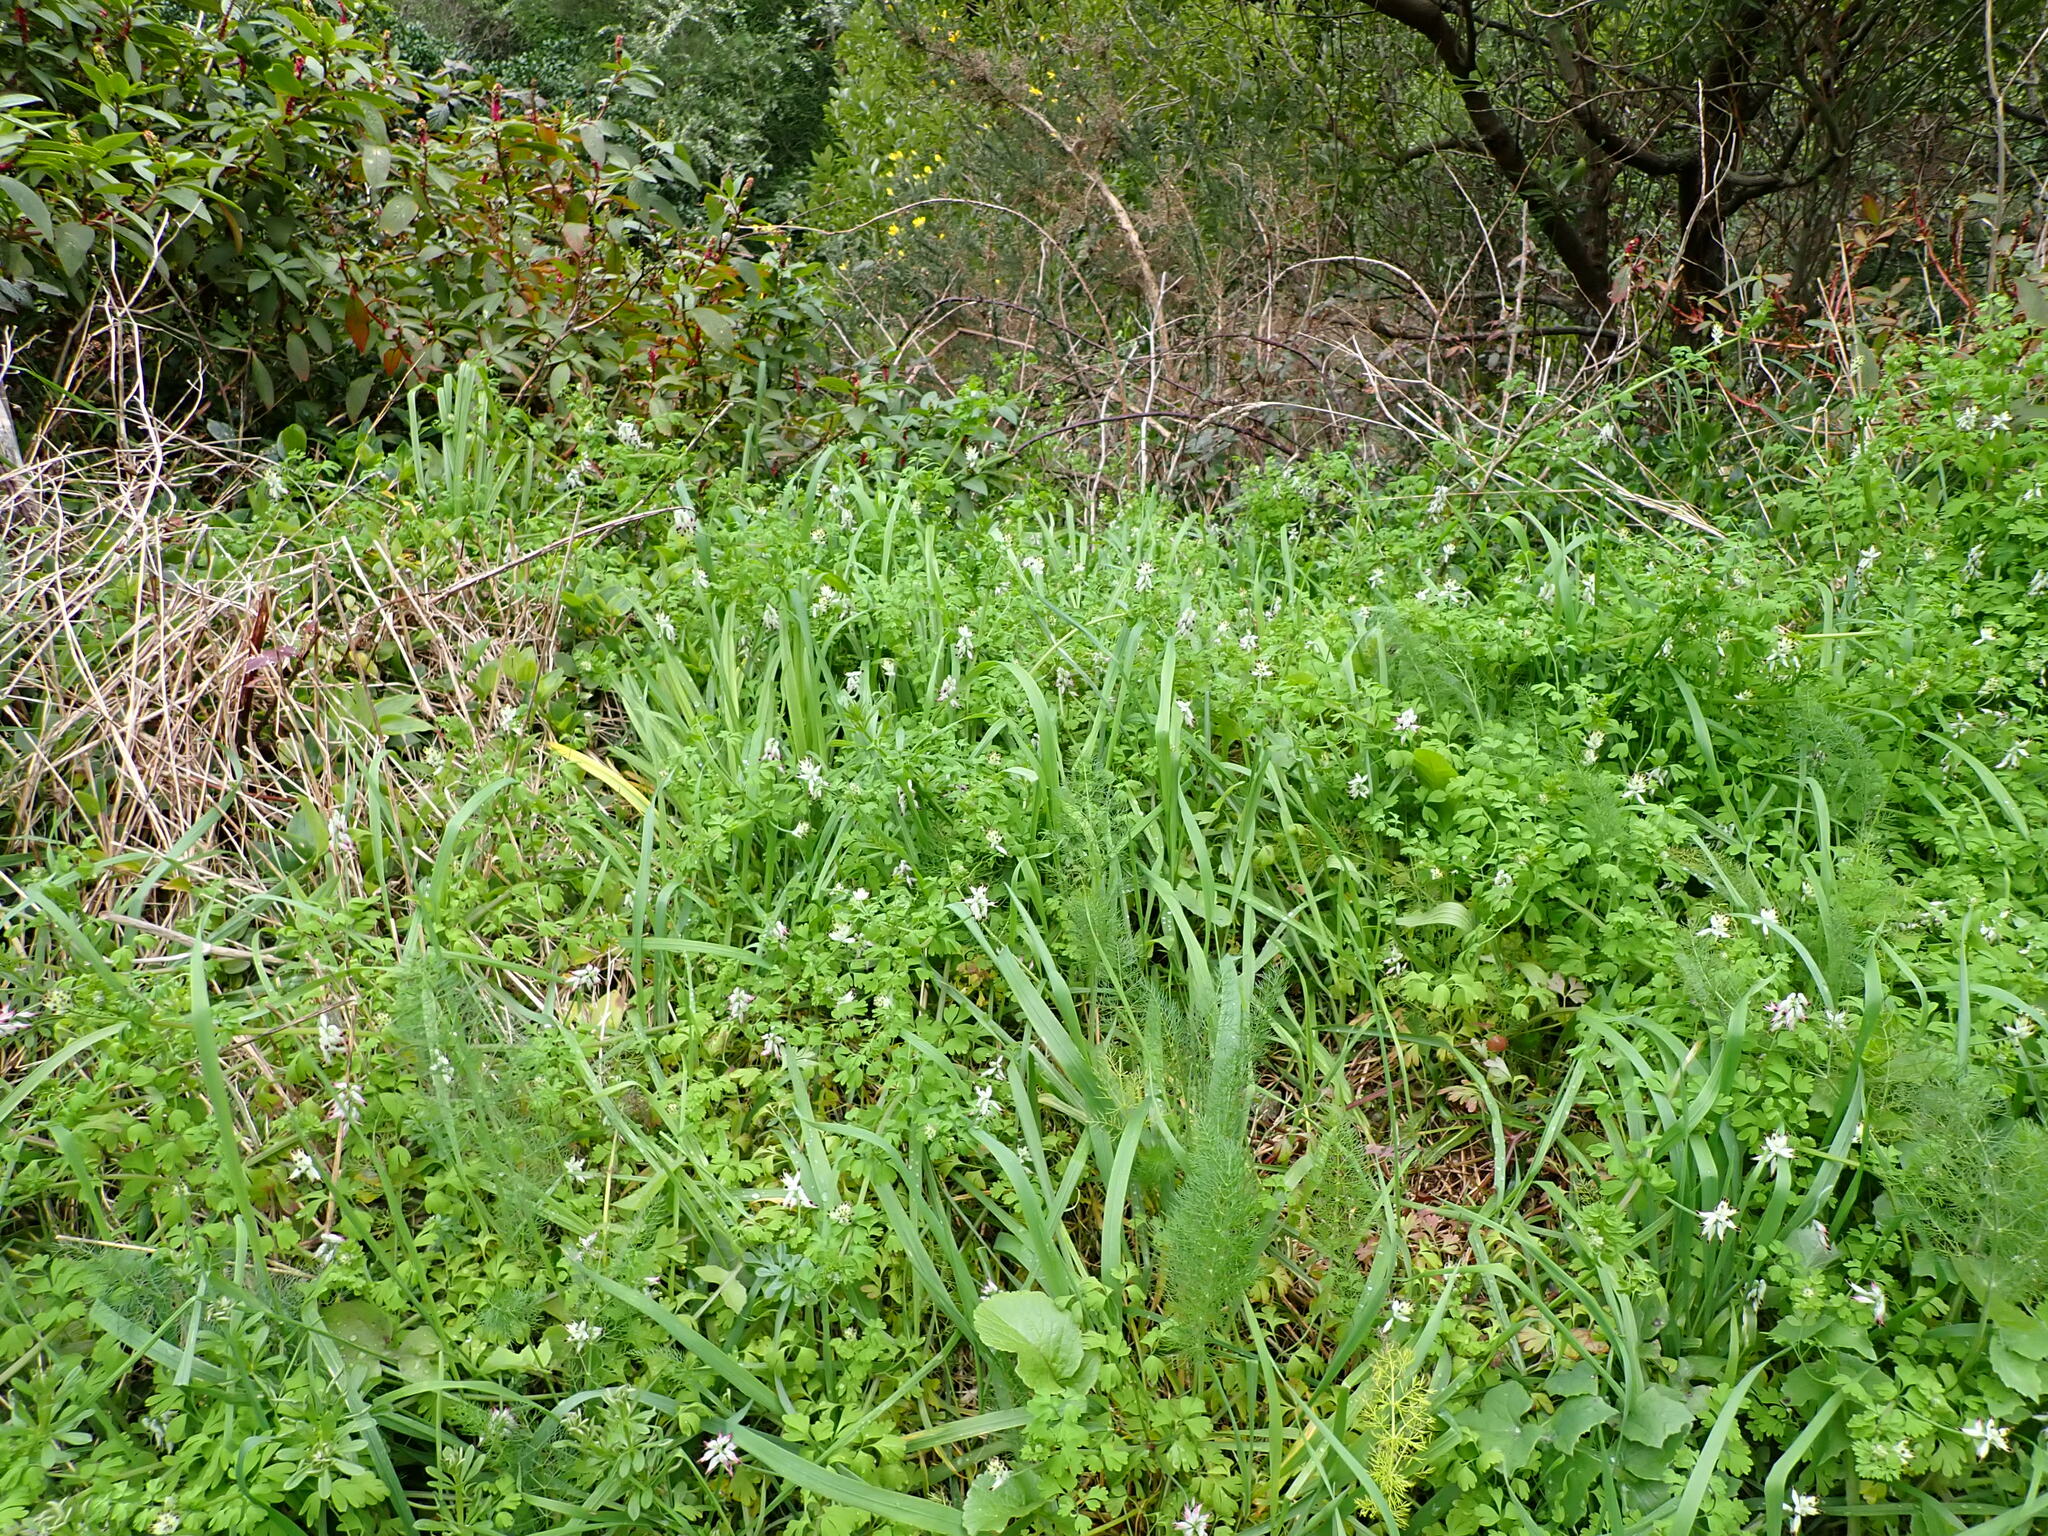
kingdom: Plantae
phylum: Tracheophyta
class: Magnoliopsida
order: Ranunculales
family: Papaveraceae
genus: Fumaria
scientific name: Fumaria capreolata
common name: White ramping-fumitory
